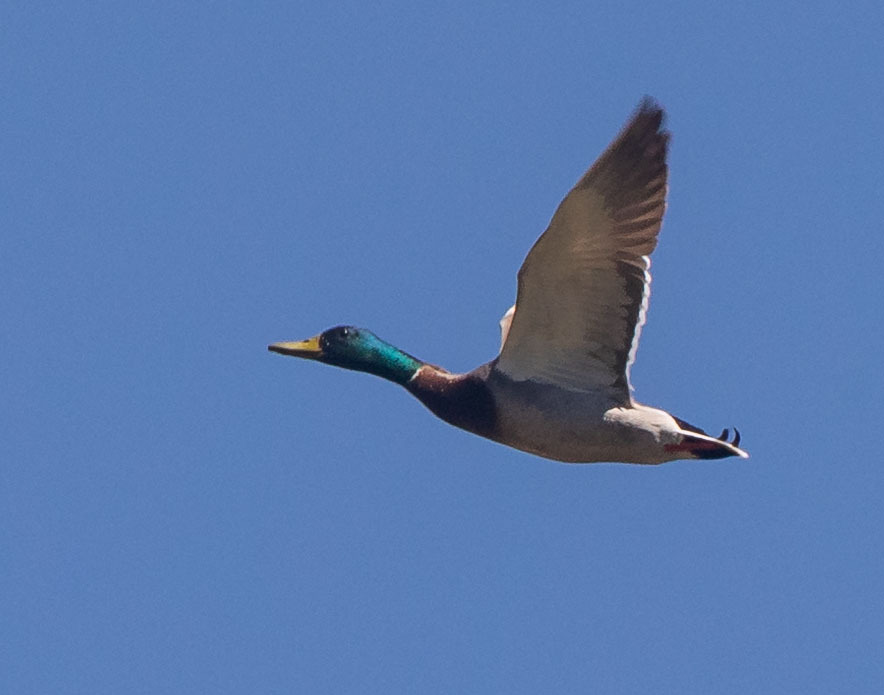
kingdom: Animalia
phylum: Chordata
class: Aves
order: Anseriformes
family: Anatidae
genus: Anas
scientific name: Anas platyrhynchos
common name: Mallard
